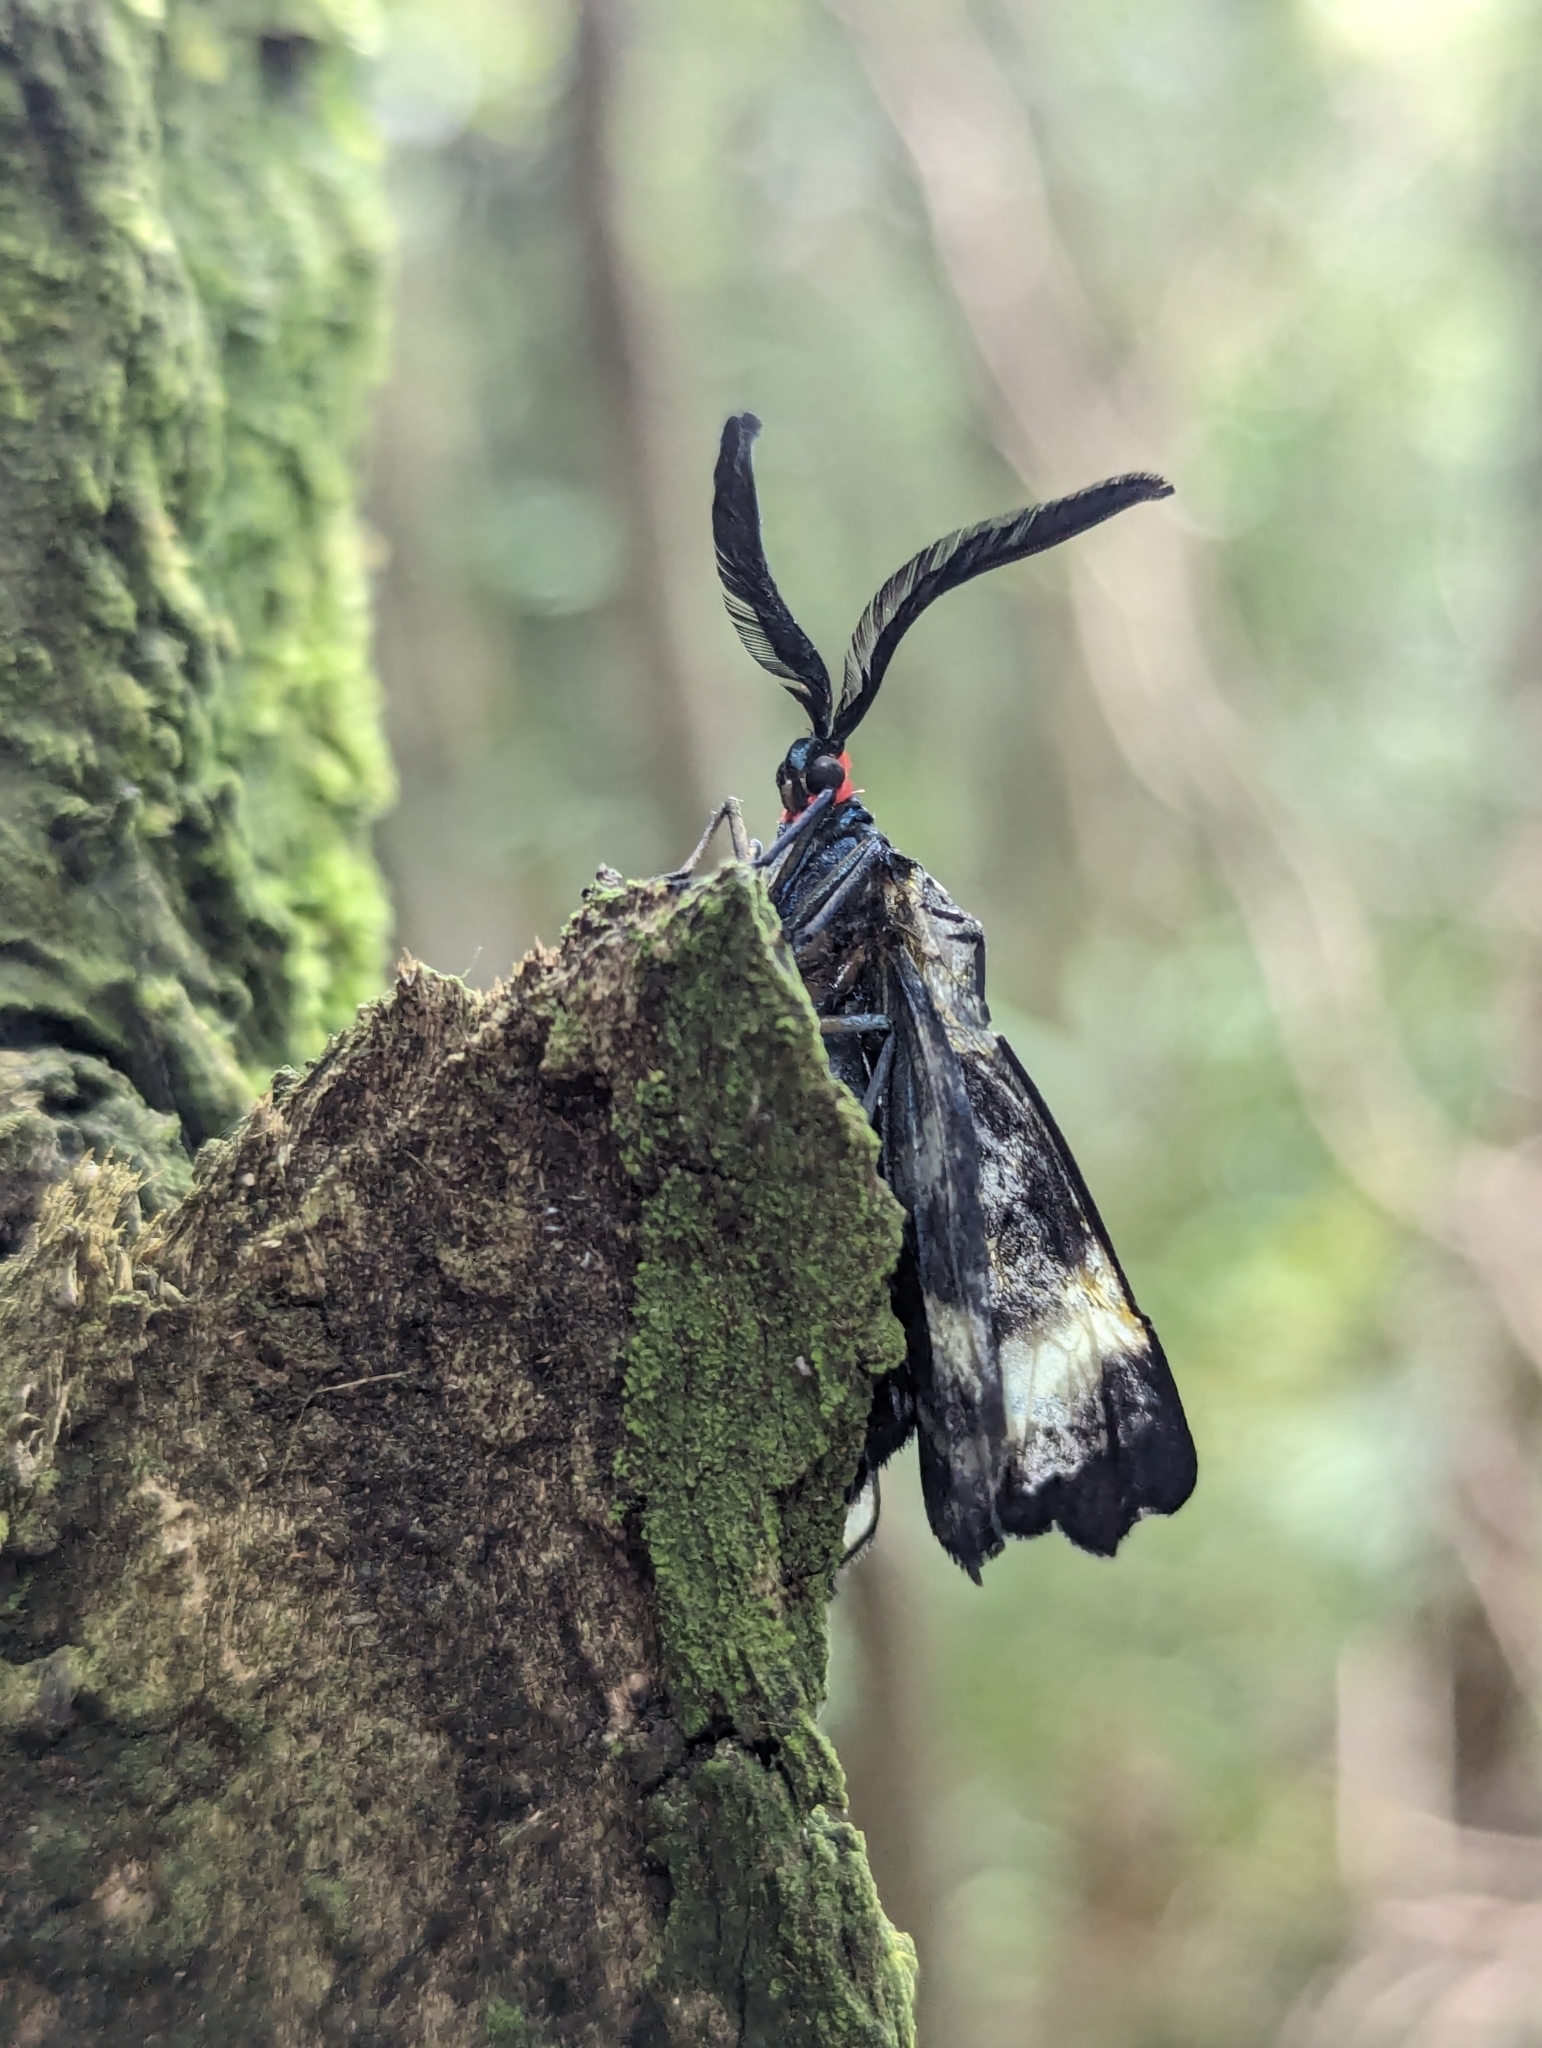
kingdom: Animalia
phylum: Arthropoda
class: Insecta
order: Lepidoptera
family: Zygaenidae
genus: Pidorus
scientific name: Pidorus glaucopis
